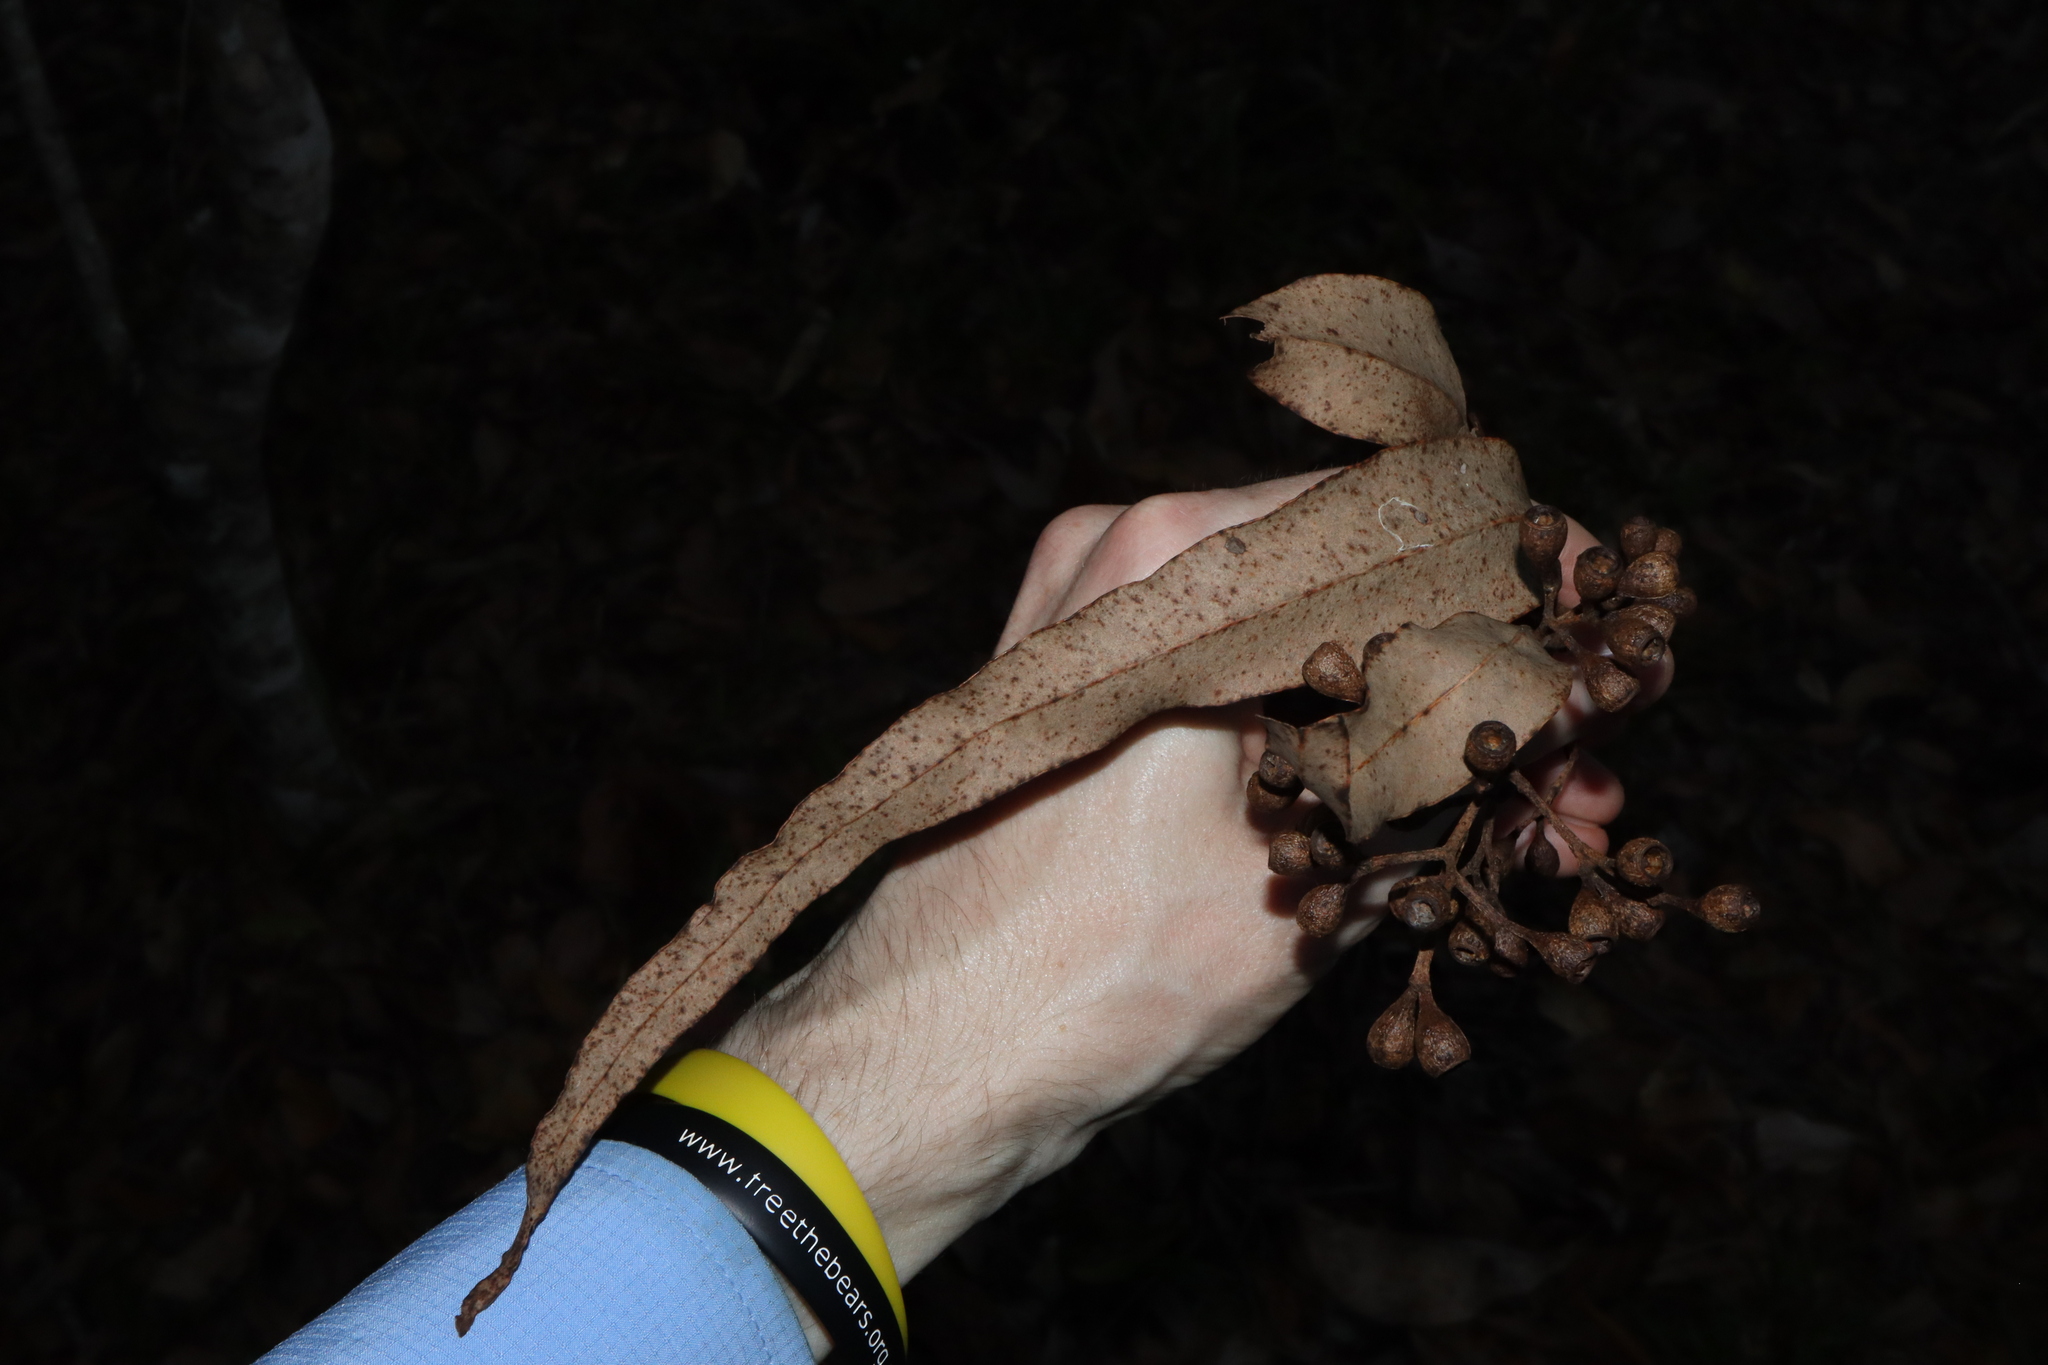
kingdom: Plantae
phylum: Tracheophyta
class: Magnoliopsida
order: Myrtales
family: Myrtaceae
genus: Eucalyptus
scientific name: Eucalyptus leptophleba
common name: Molloy-box
